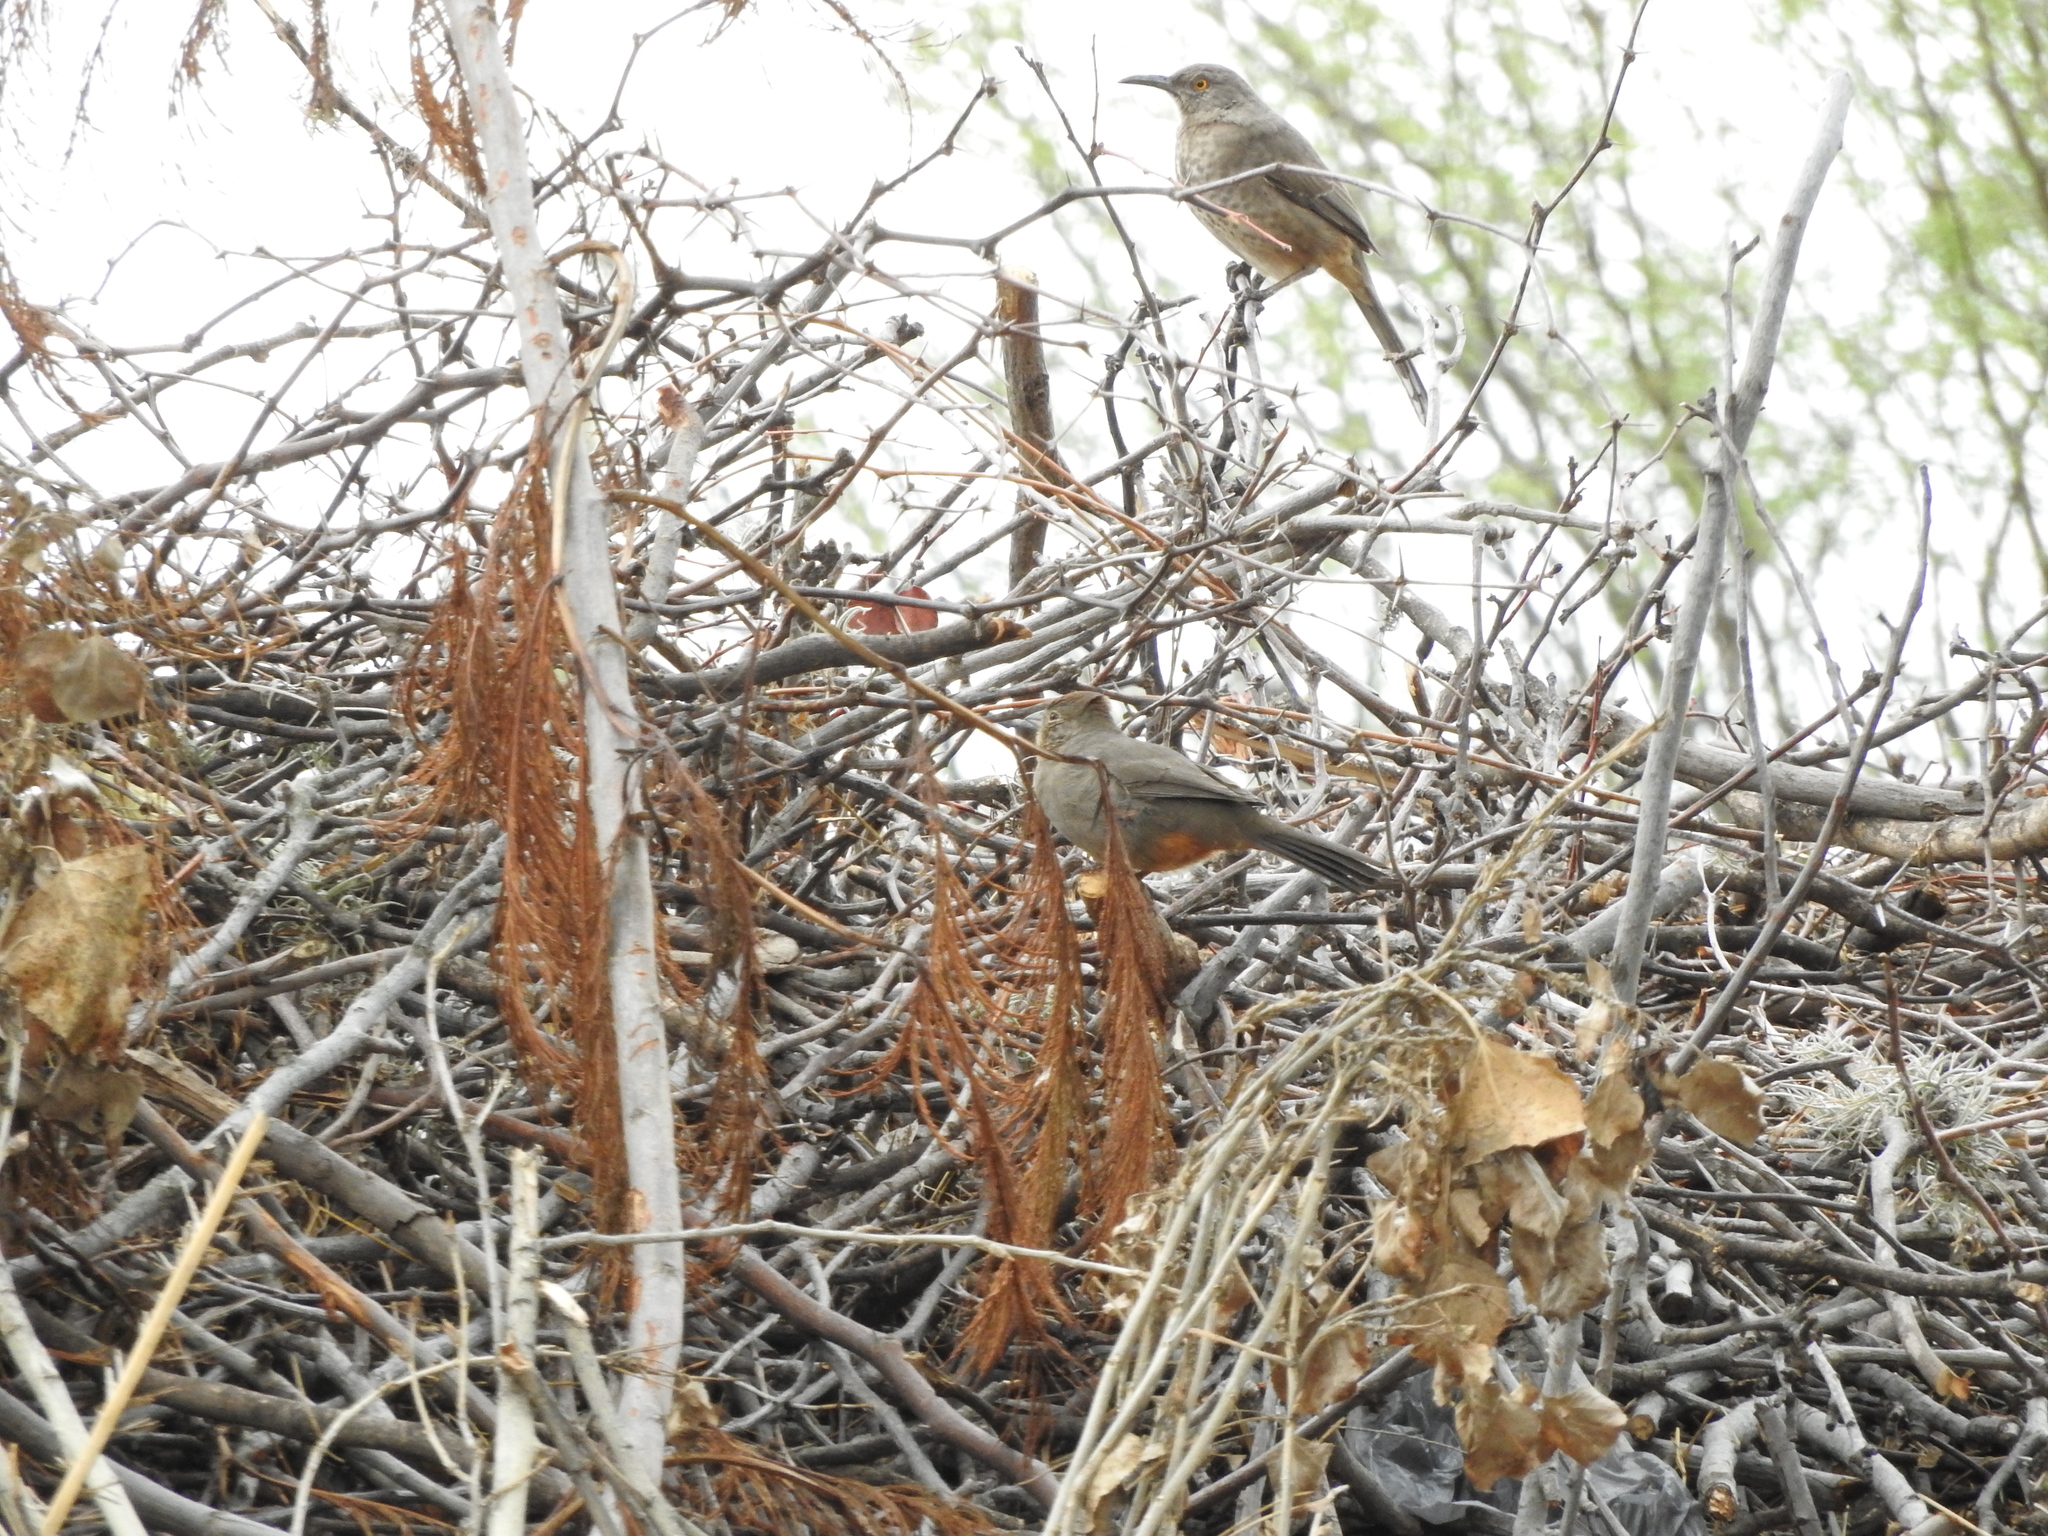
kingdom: Animalia
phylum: Chordata
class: Aves
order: Passeriformes
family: Mimidae
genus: Toxostoma
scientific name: Toxostoma curvirostre
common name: Curve-billed thrasher
